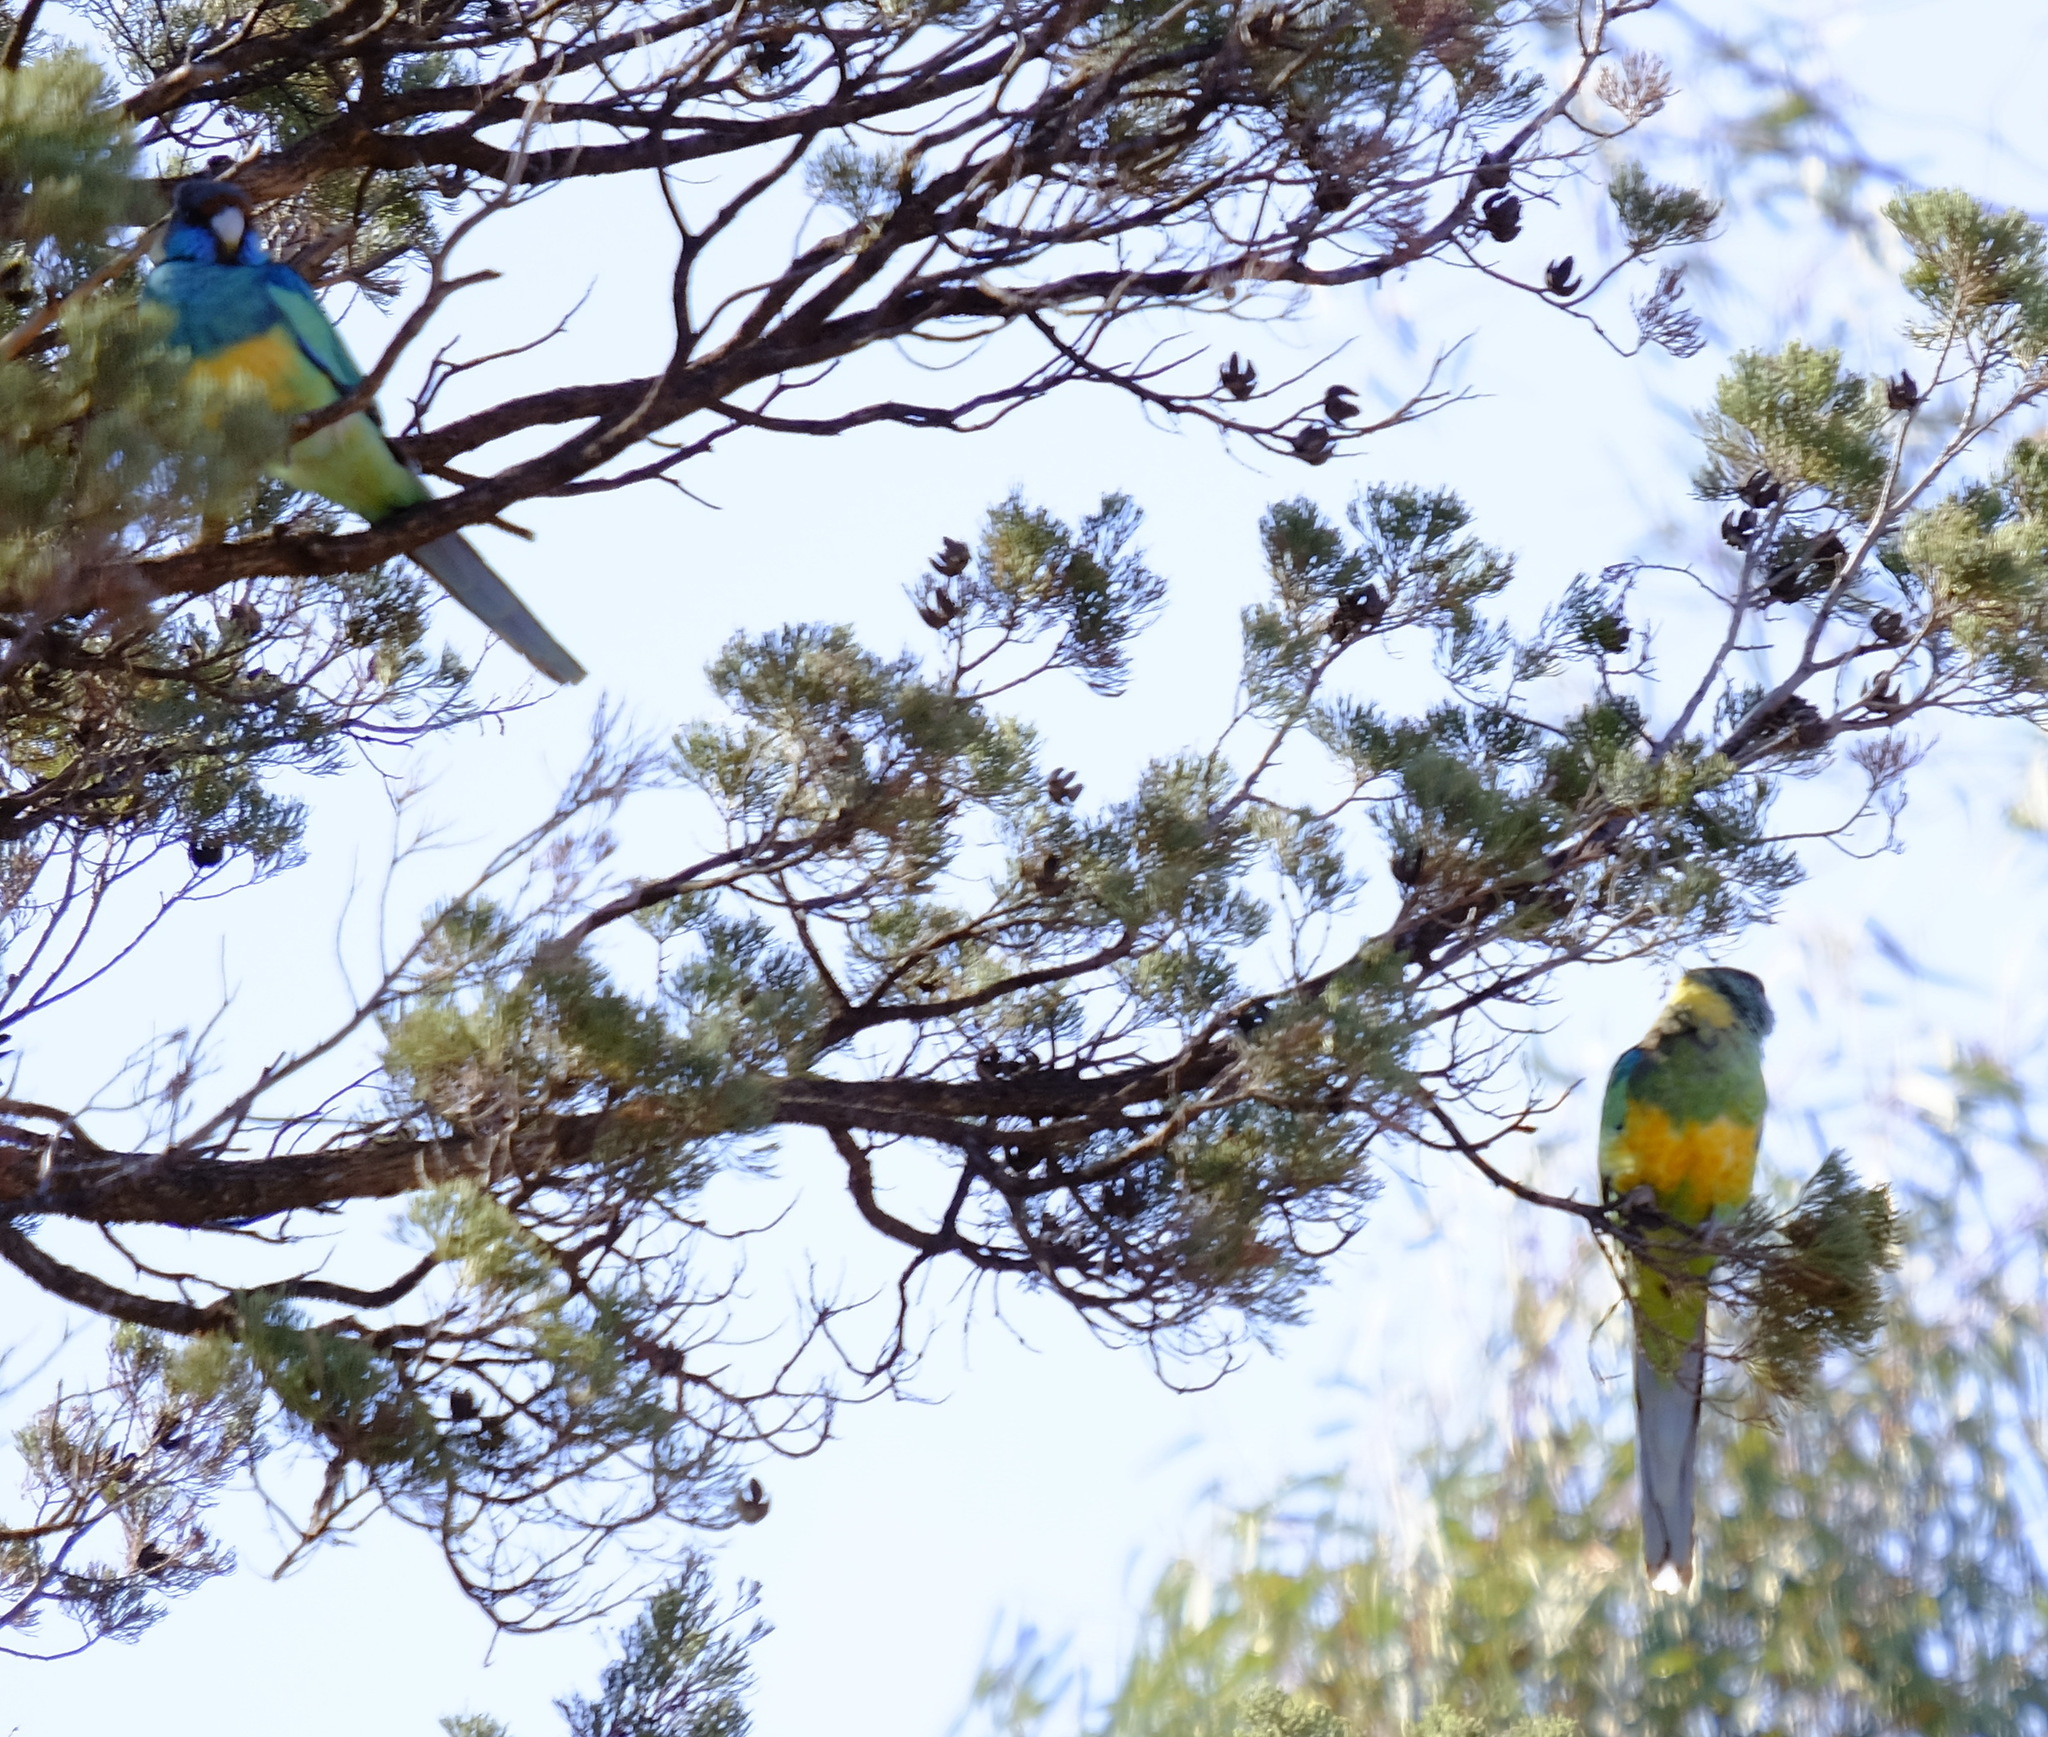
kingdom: Animalia
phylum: Chordata
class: Aves
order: Psittaciformes
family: Psittacidae
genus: Barnardius
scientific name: Barnardius zonarius
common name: Australian ringneck
